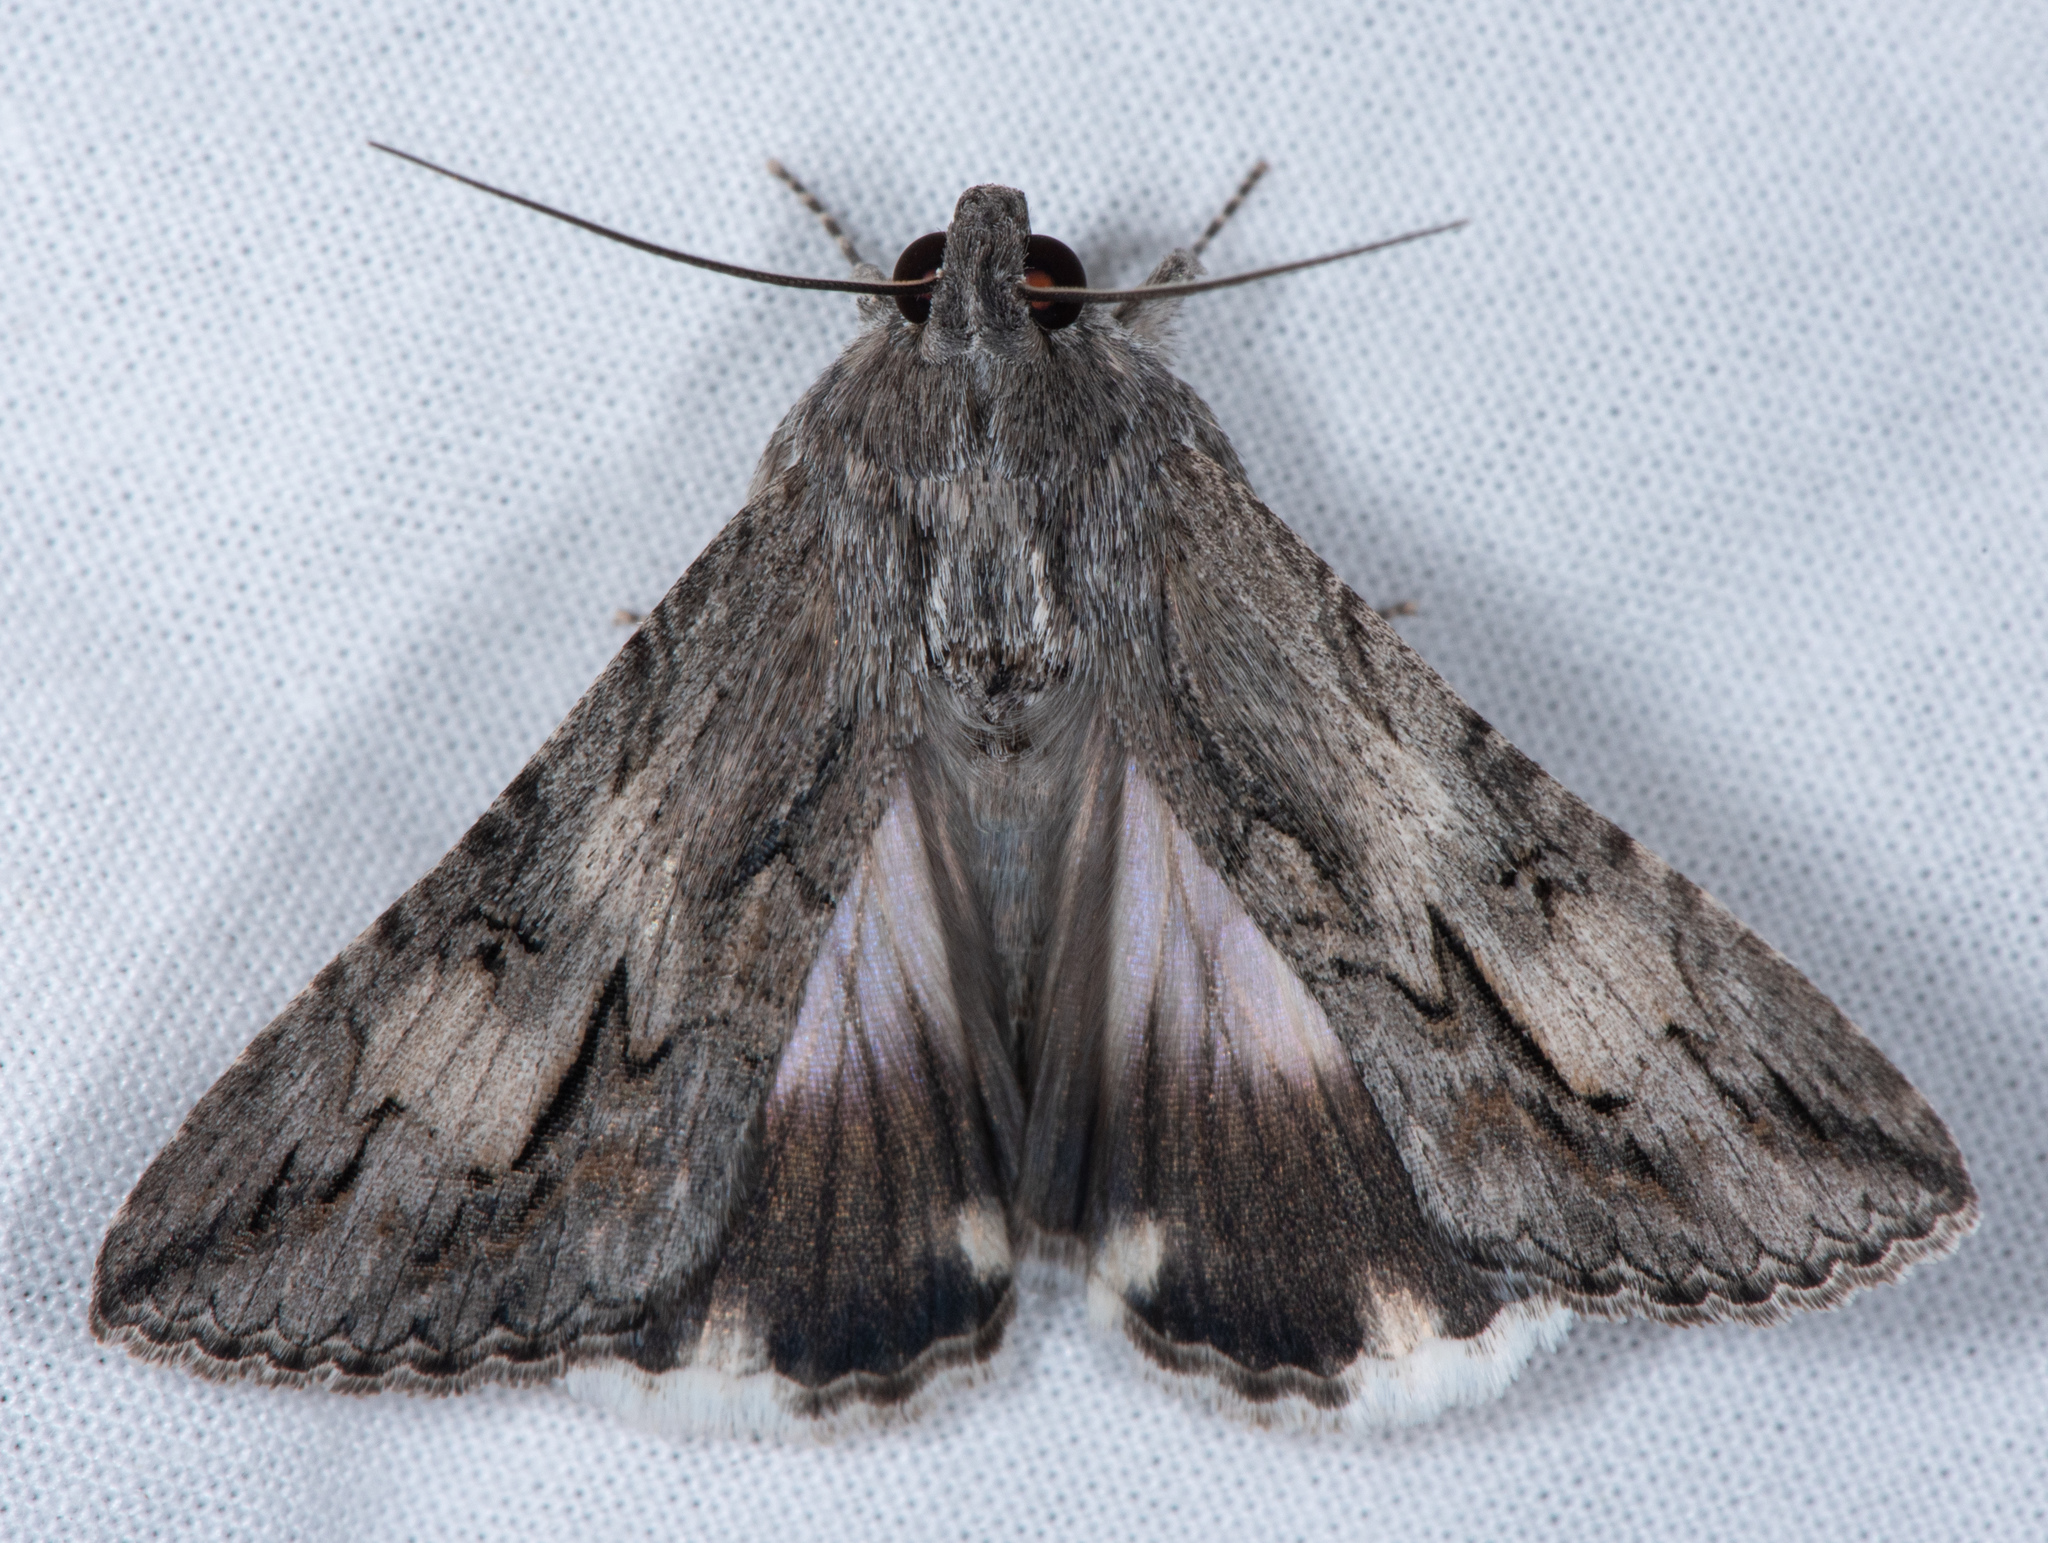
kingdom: Animalia
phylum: Arthropoda
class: Insecta
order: Lepidoptera
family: Erebidae
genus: Melipotis
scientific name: Melipotis jucunda
